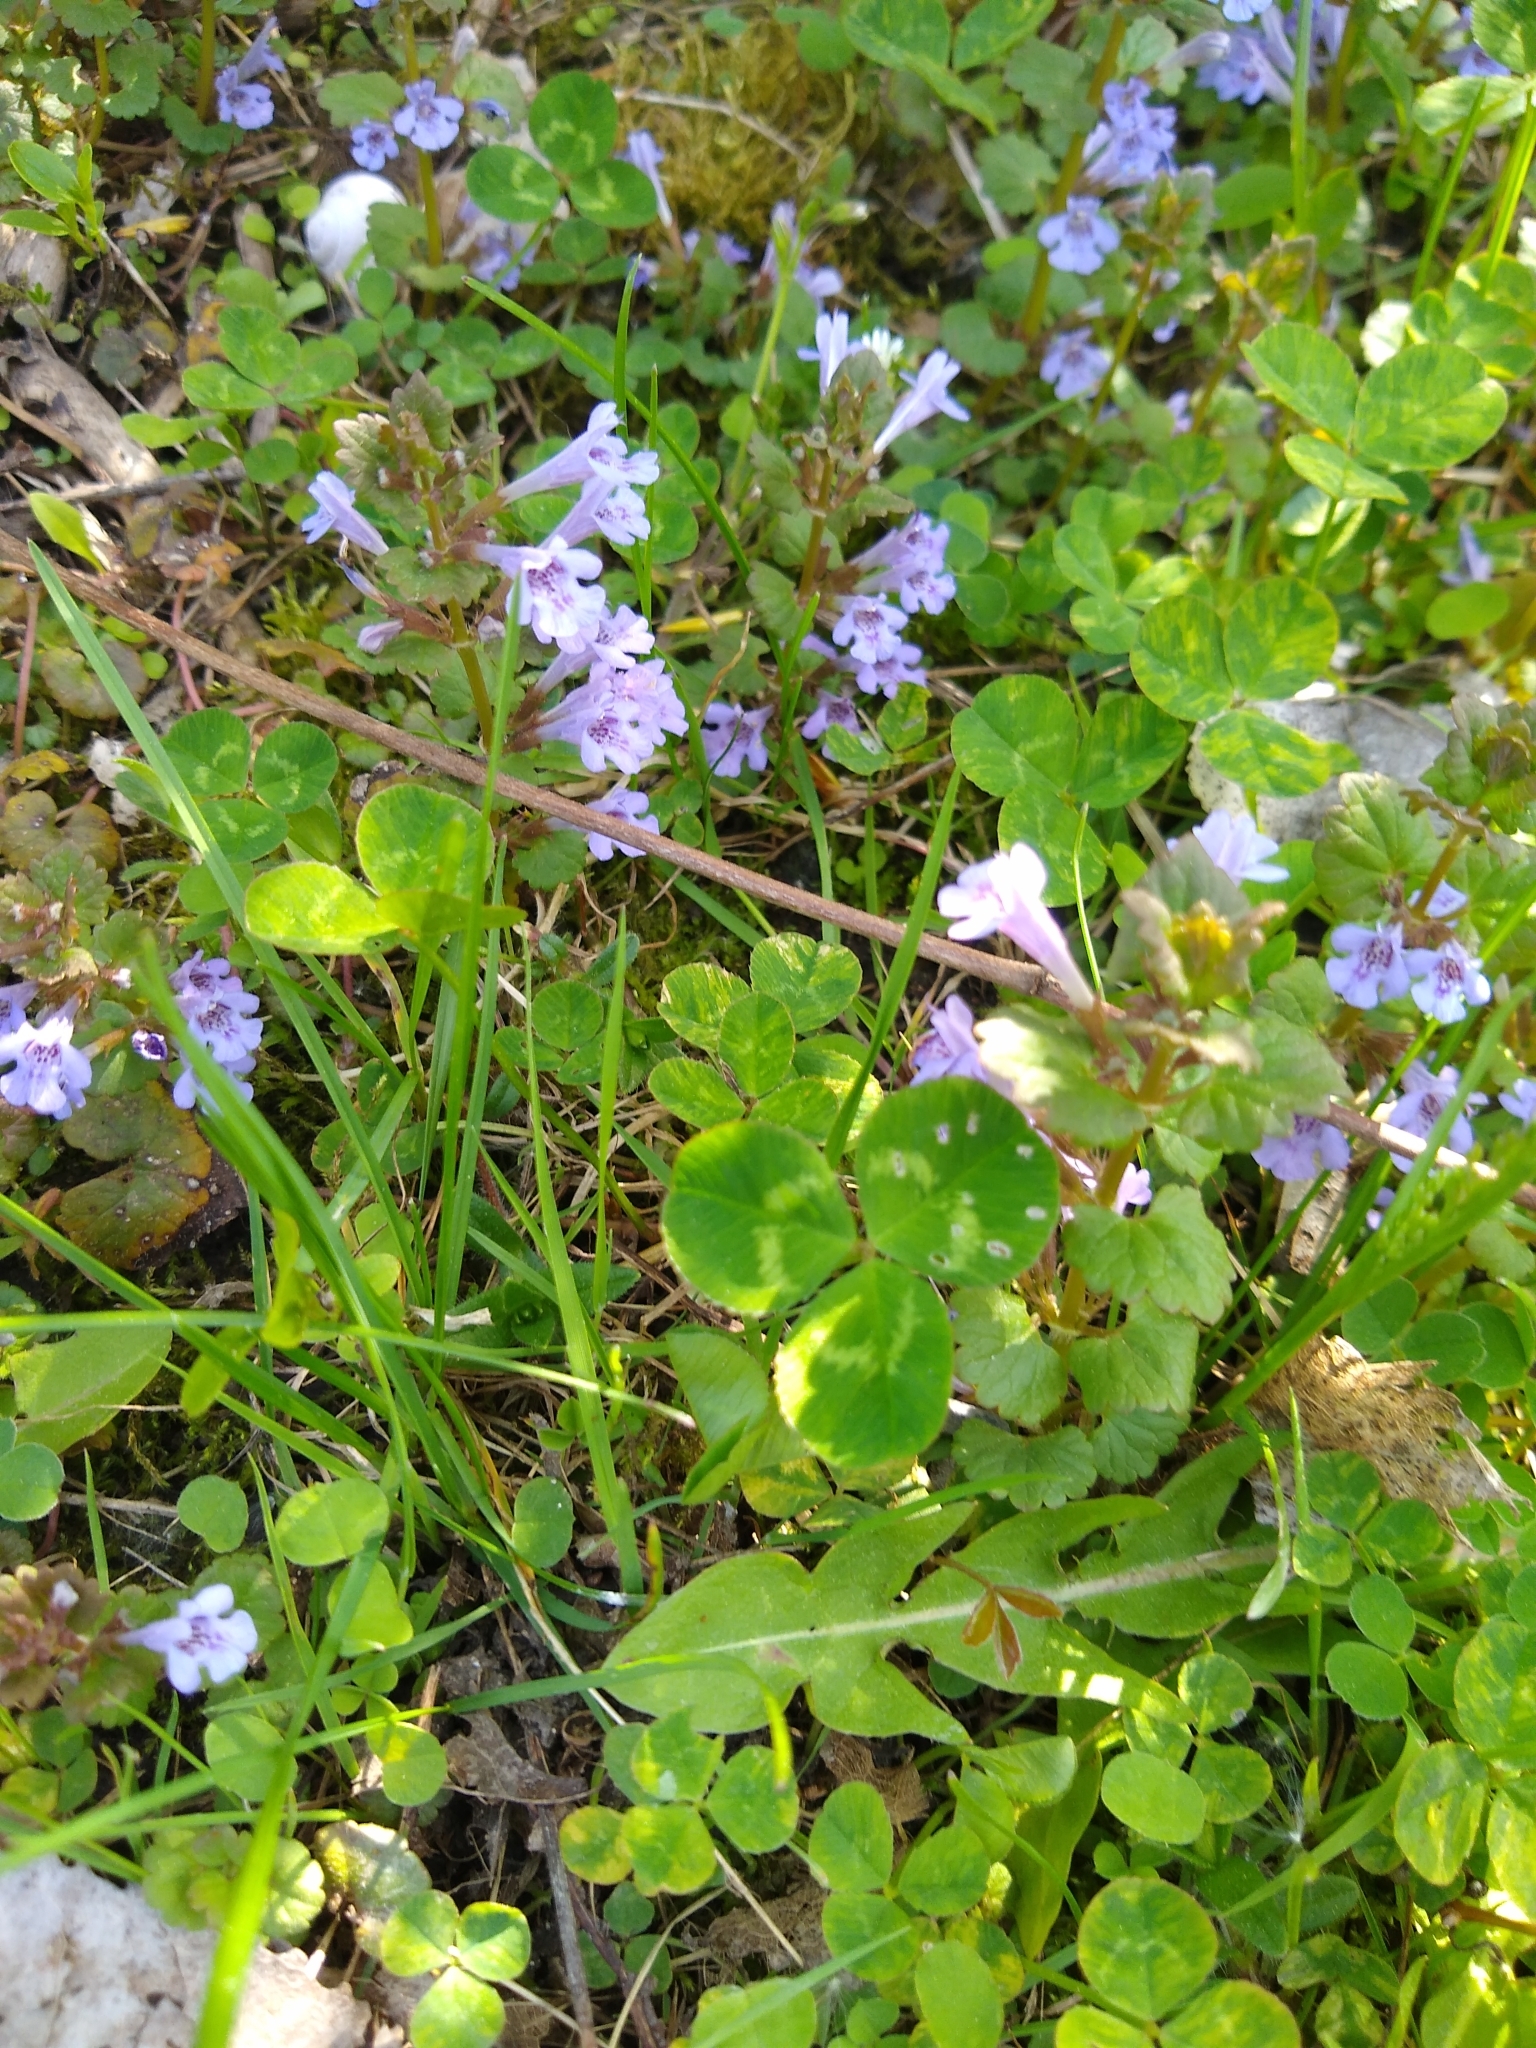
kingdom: Plantae
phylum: Tracheophyta
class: Magnoliopsida
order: Lamiales
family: Lamiaceae
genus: Glechoma
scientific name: Glechoma hederacea
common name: Ground ivy
